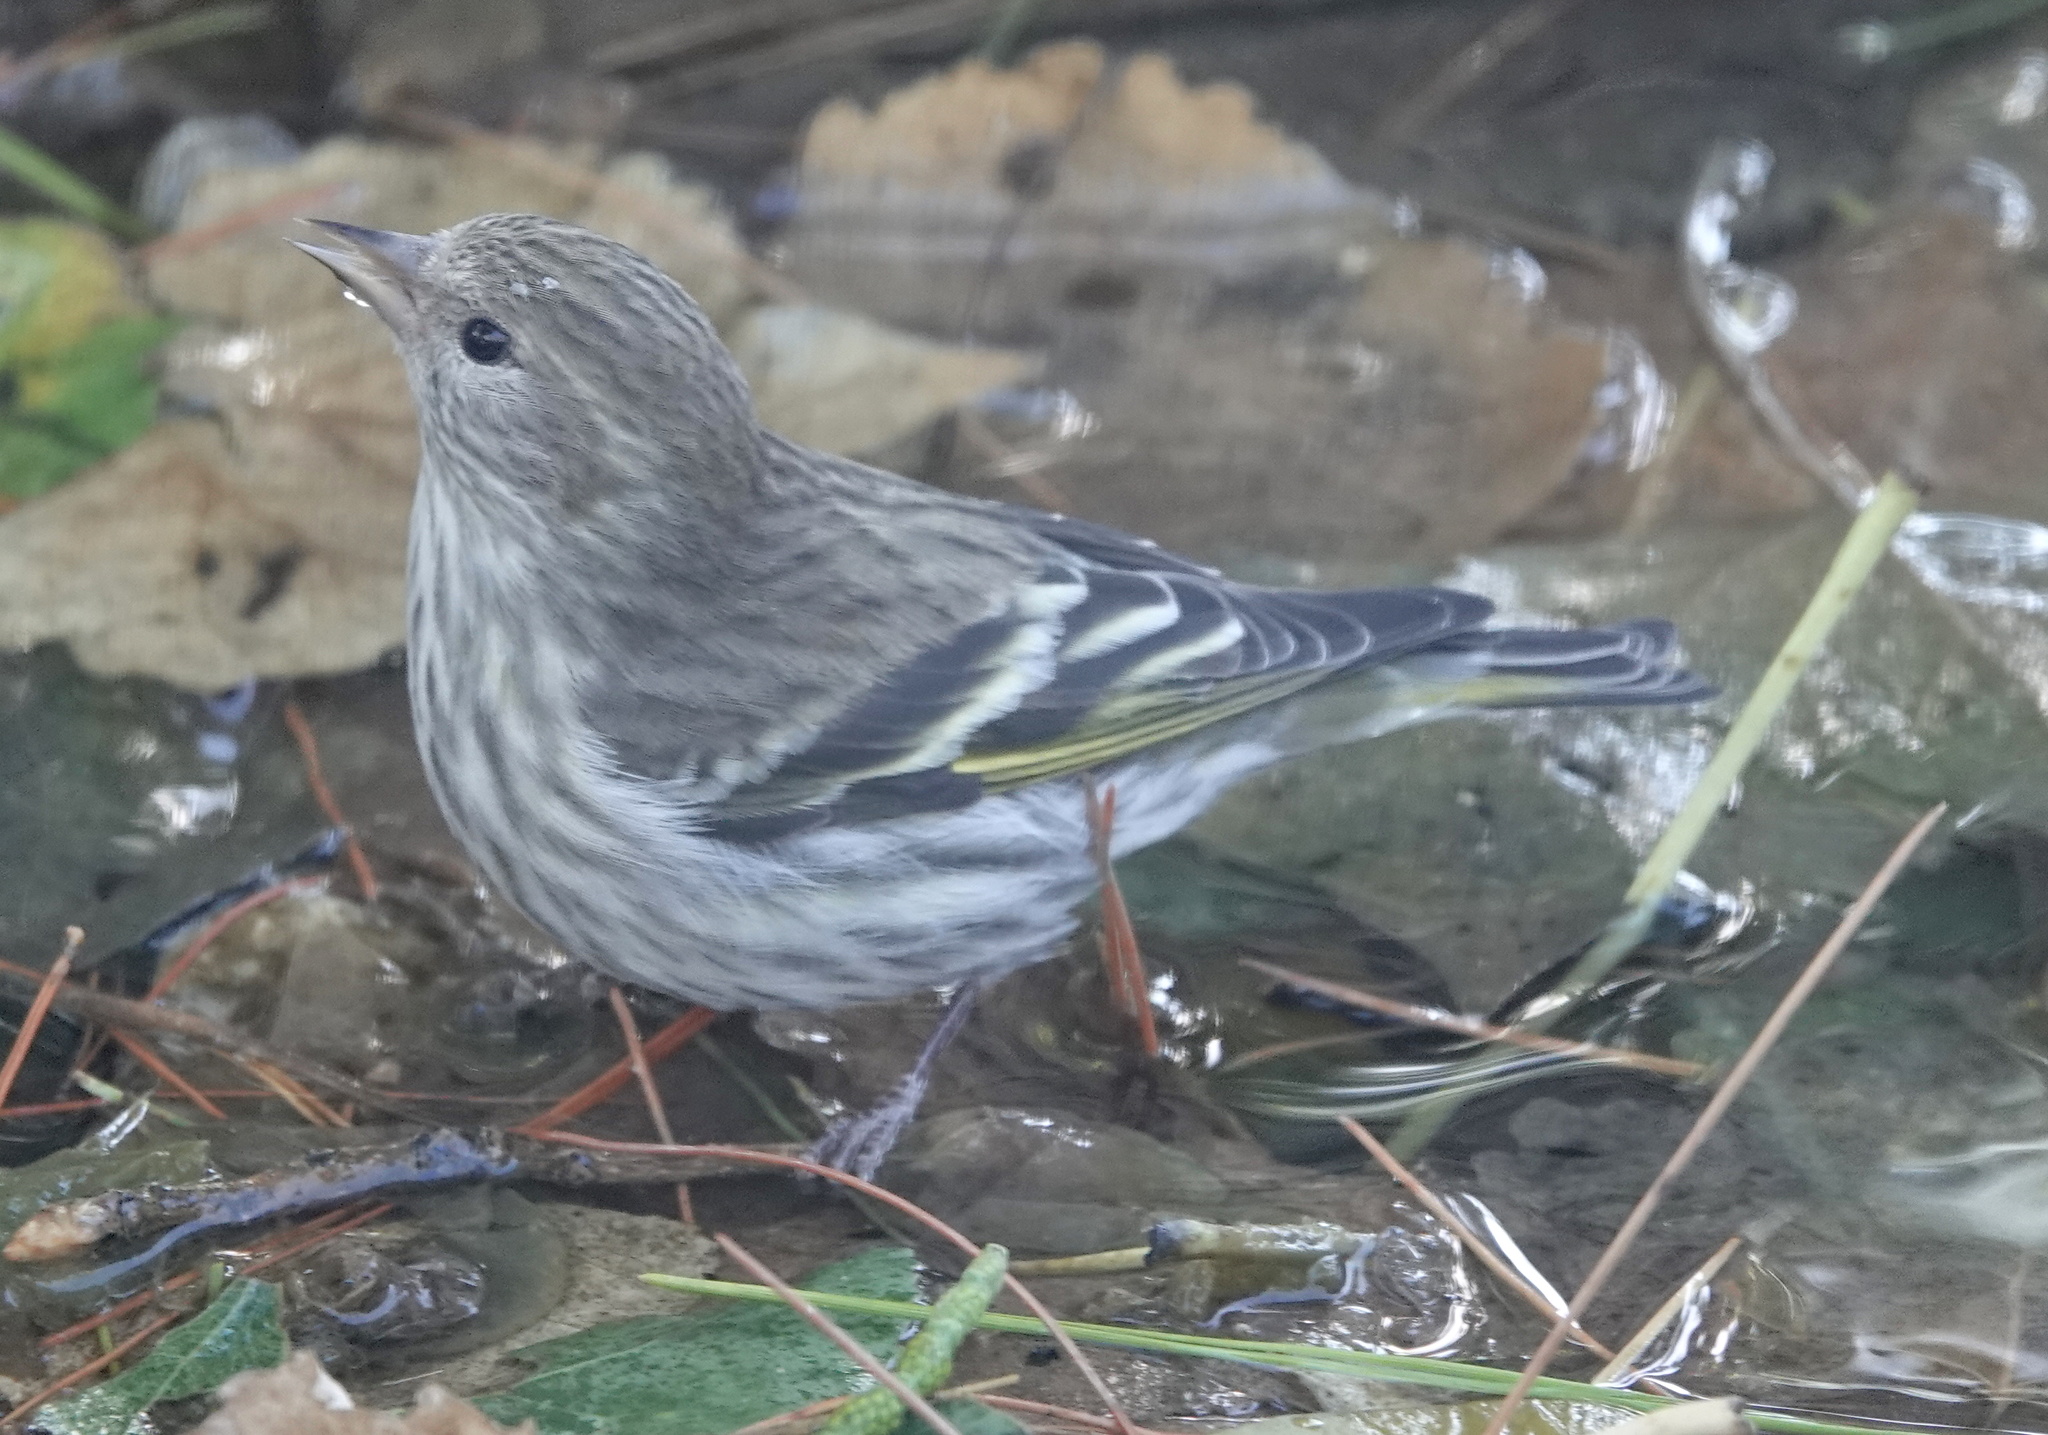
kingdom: Animalia
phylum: Chordata
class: Aves
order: Passeriformes
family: Fringillidae
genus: Spinus
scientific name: Spinus pinus
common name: Pine siskin
